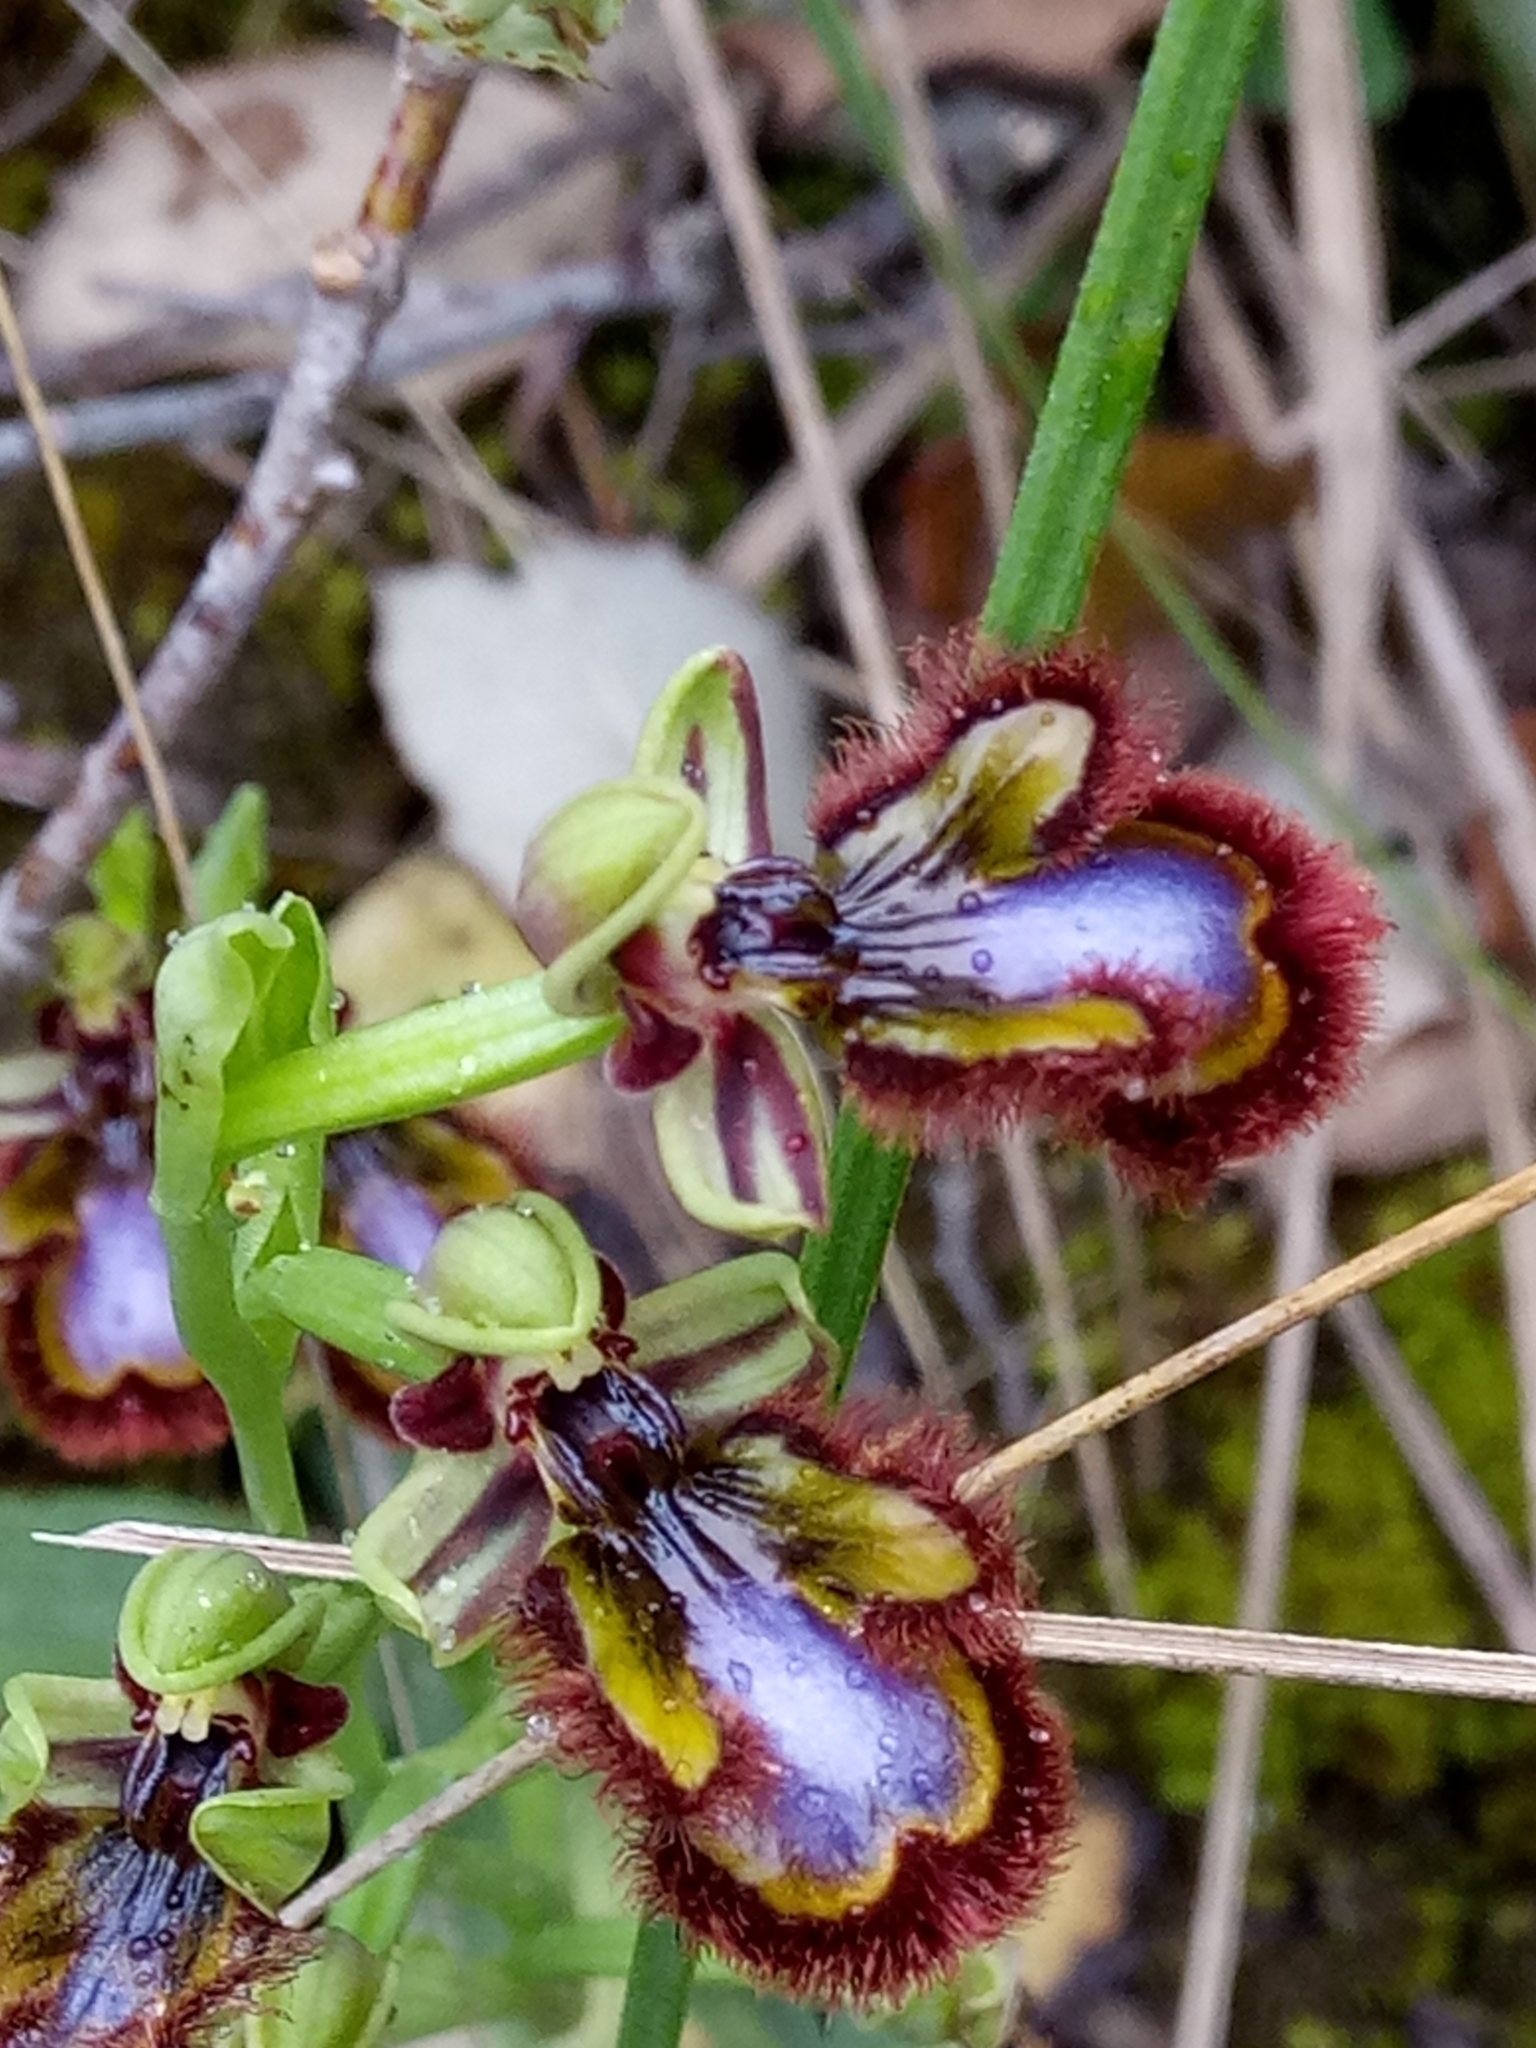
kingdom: Plantae
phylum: Tracheophyta
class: Liliopsida
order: Asparagales
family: Orchidaceae
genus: Ophrys
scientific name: Ophrys speculum
